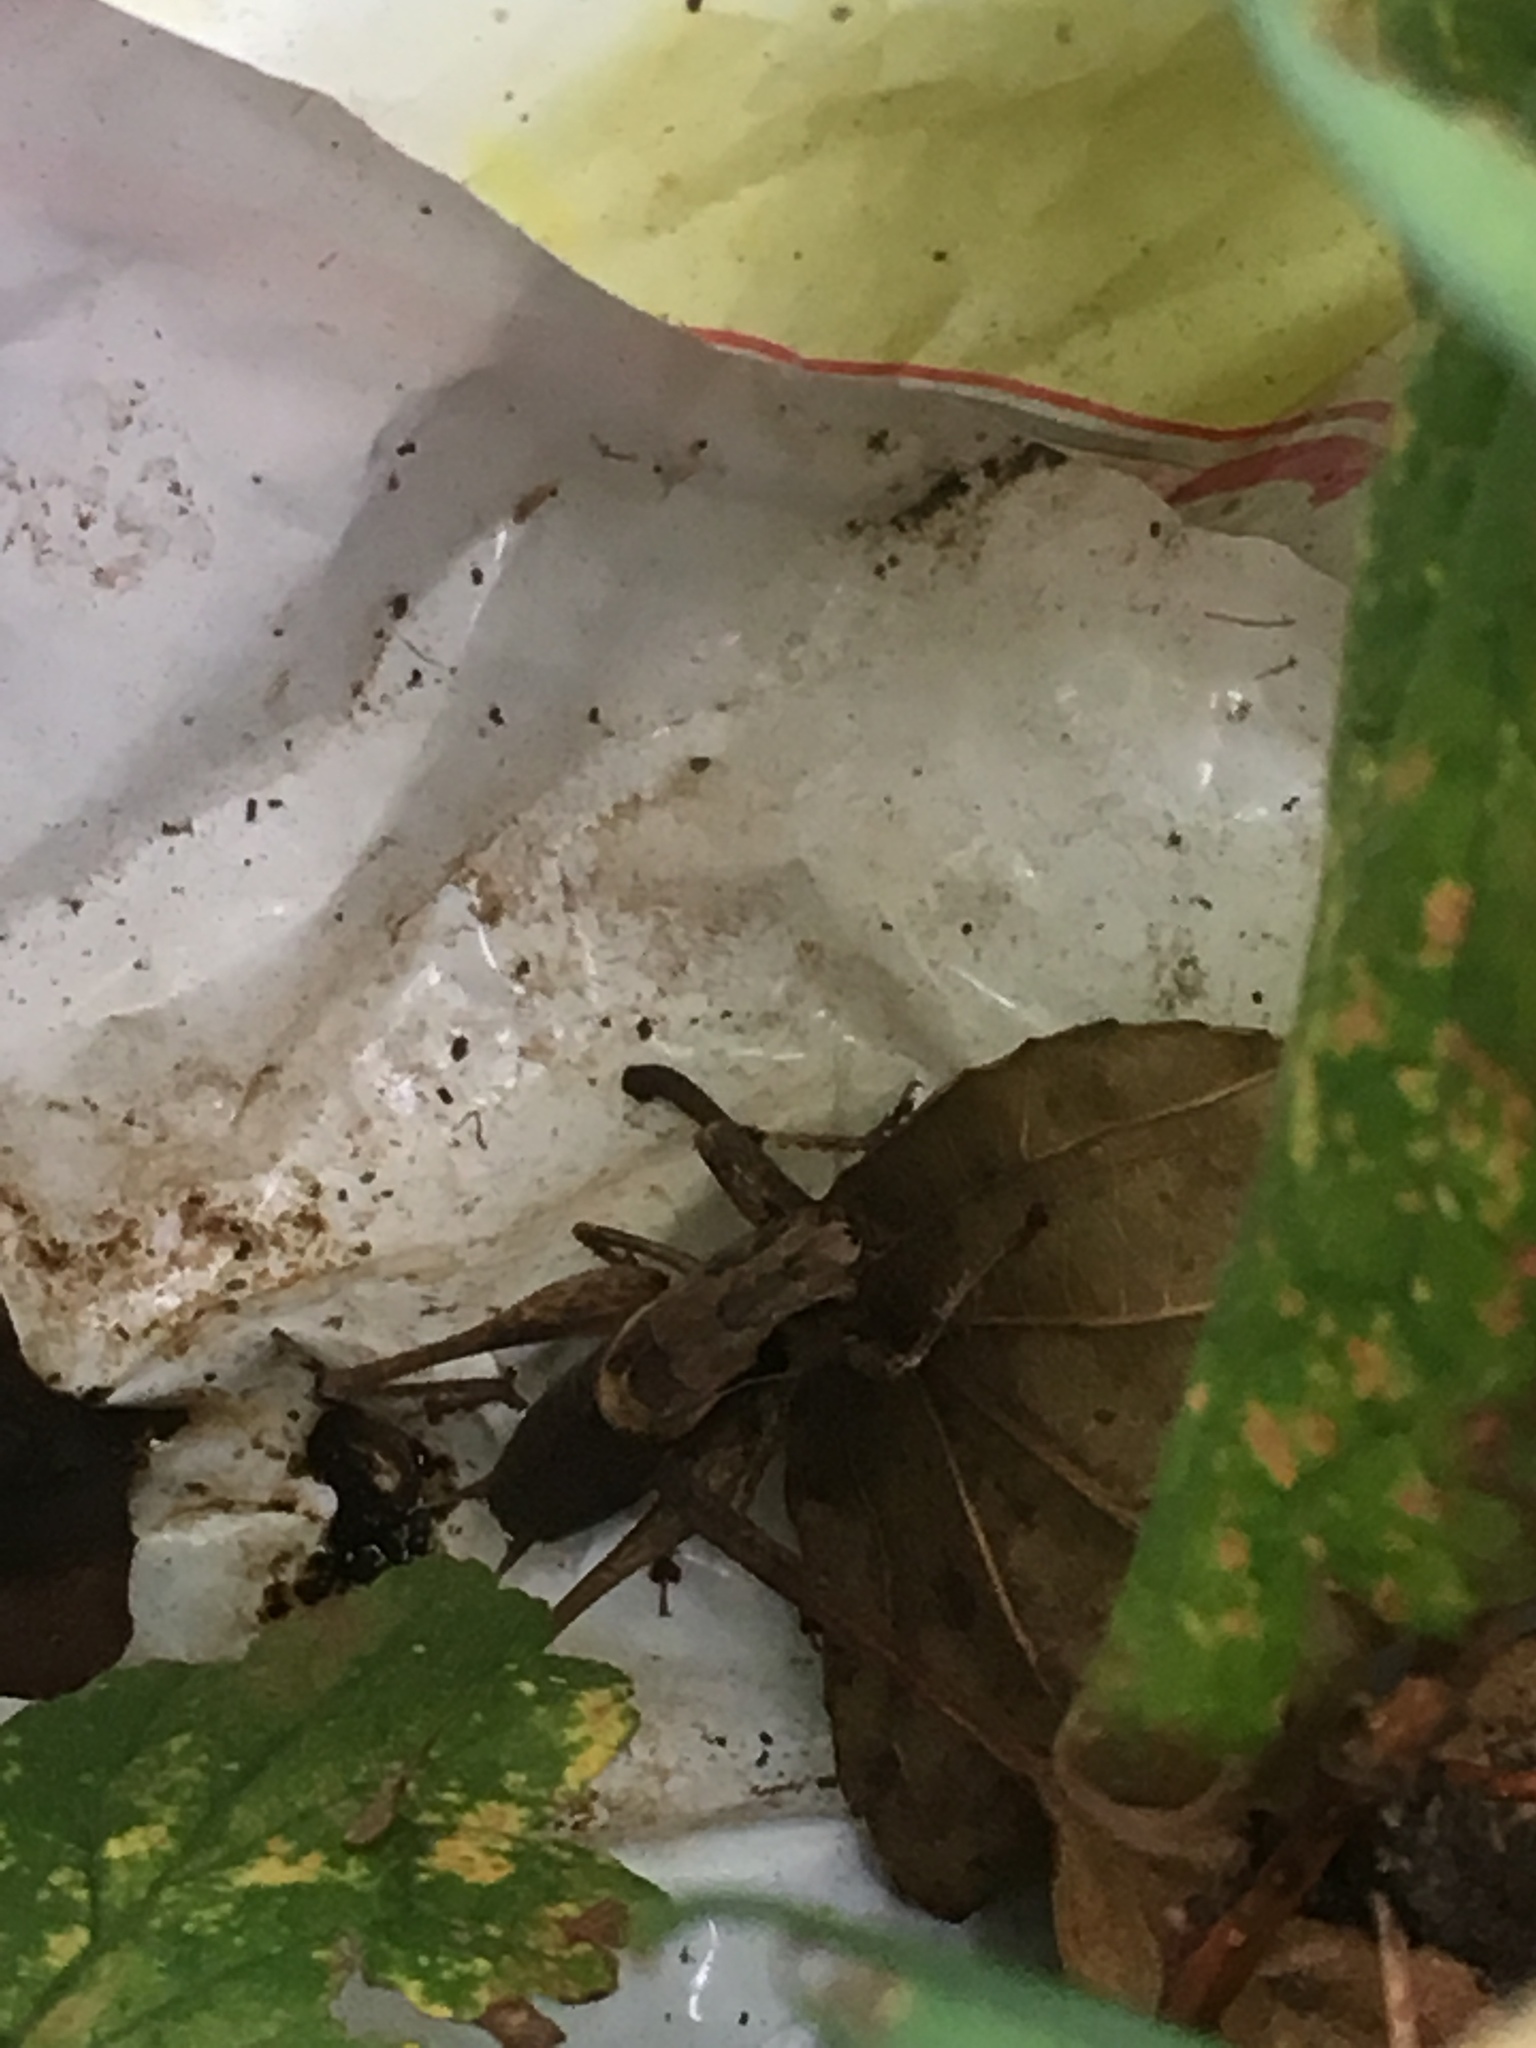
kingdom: Animalia
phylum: Arthropoda
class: Insecta
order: Orthoptera
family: Tettigoniidae
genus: Pholidoptera
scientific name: Pholidoptera griseoaptera
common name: Dark bush-cricket
